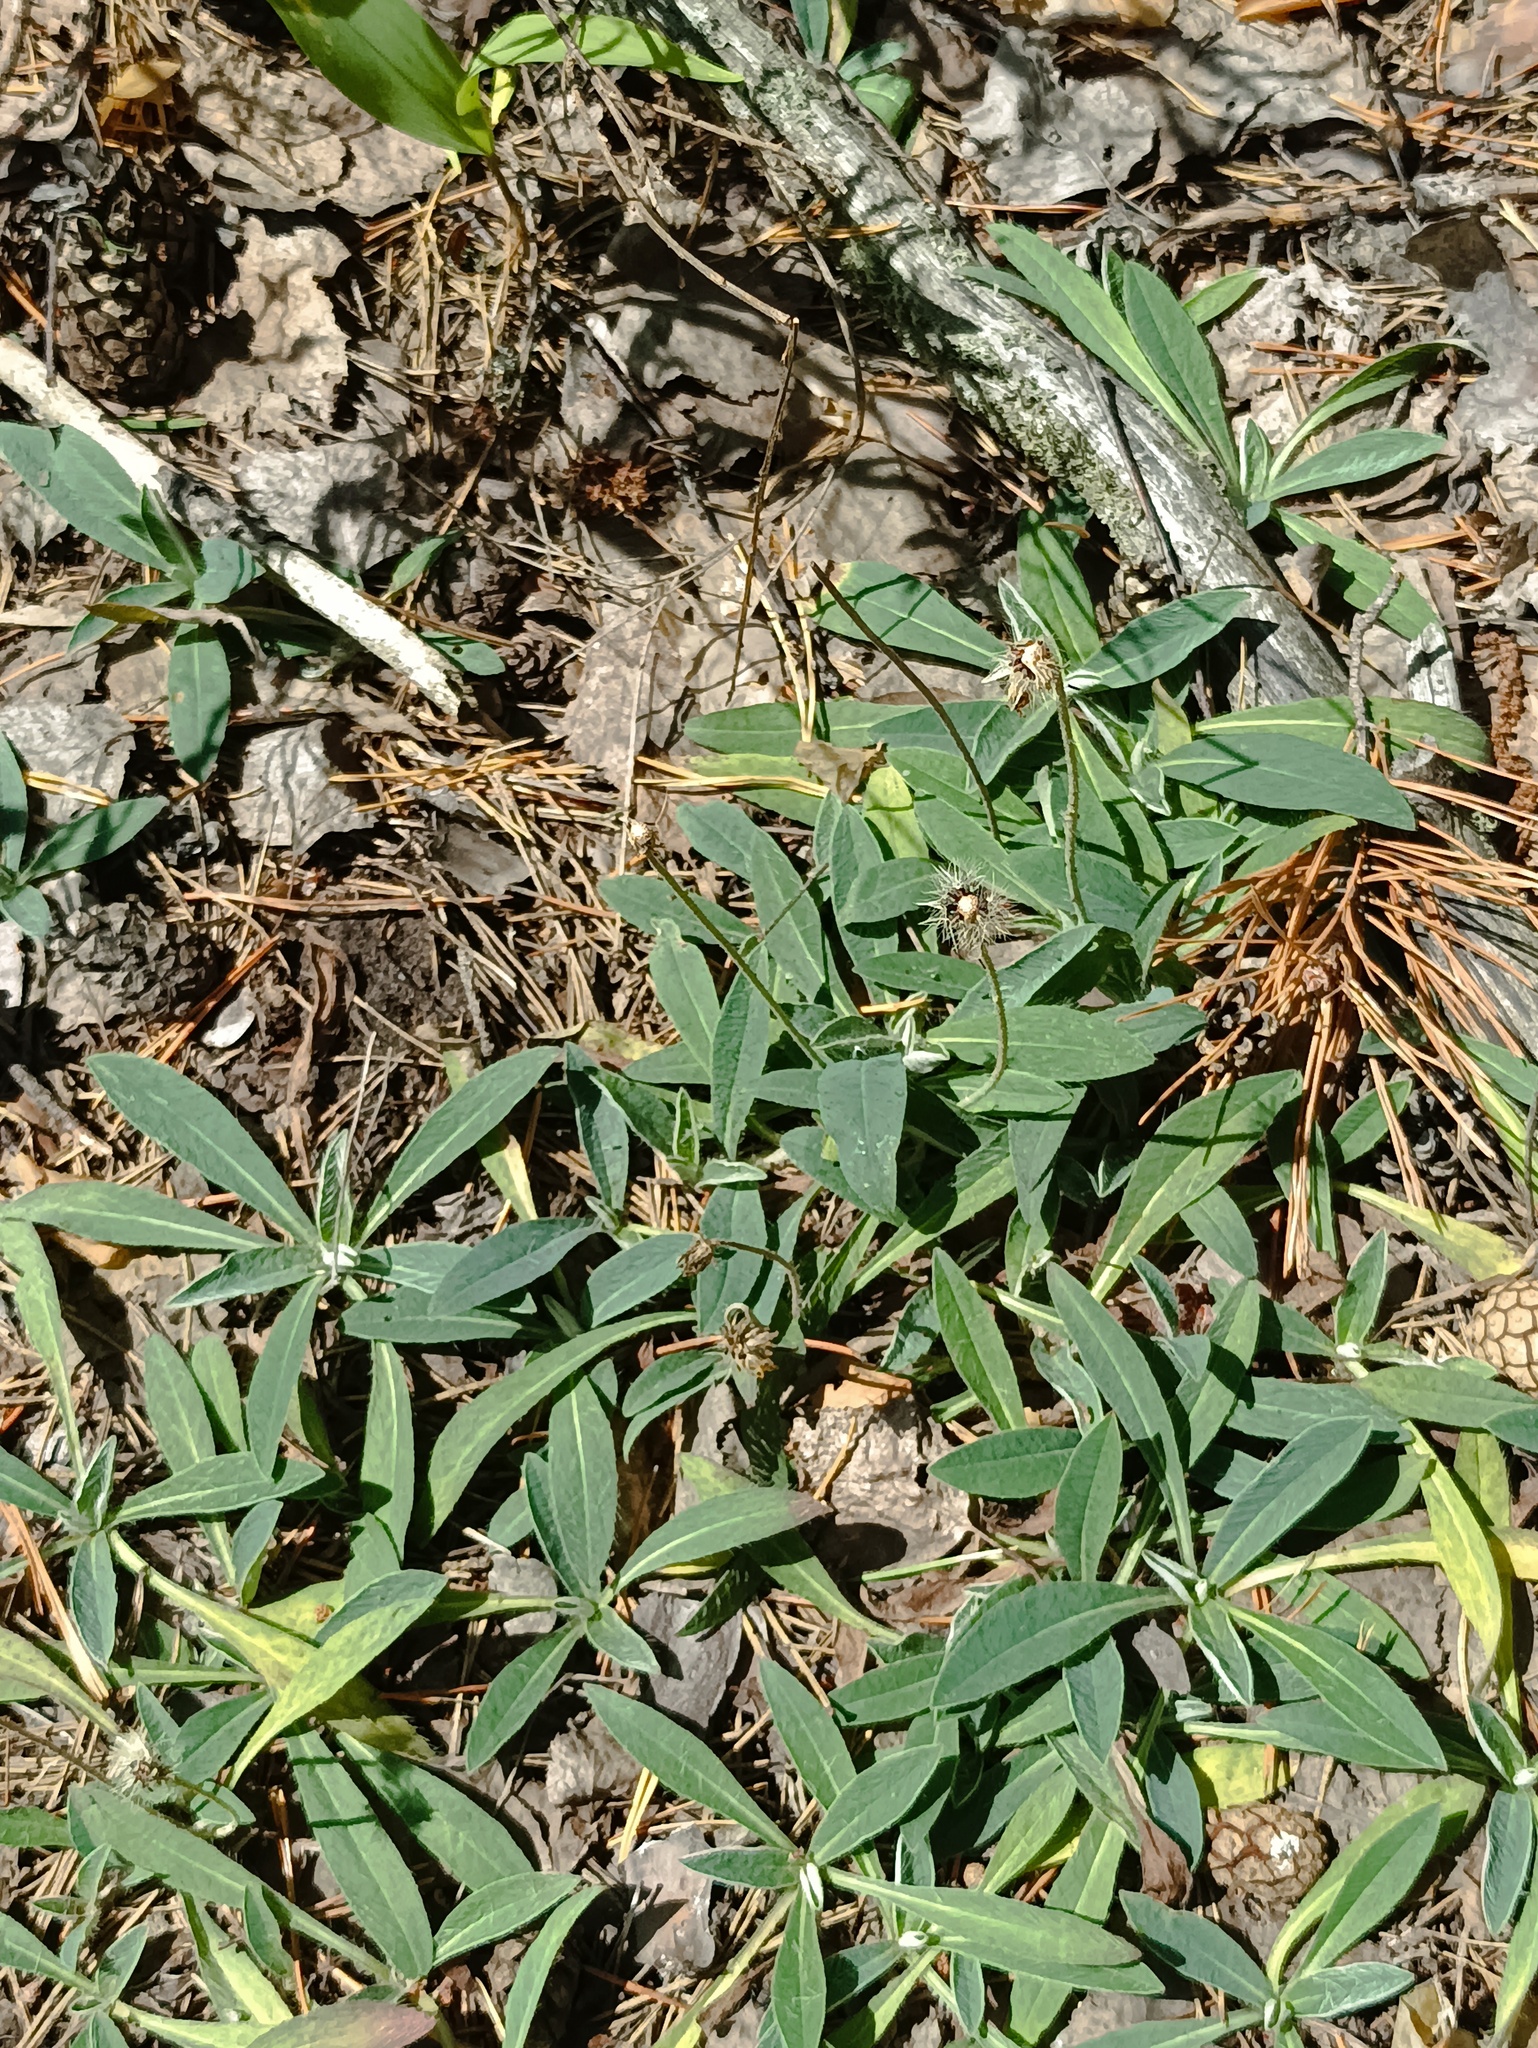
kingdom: Plantae
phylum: Tracheophyta
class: Magnoliopsida
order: Asterales
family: Asteraceae
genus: Pilosella
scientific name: Pilosella officinarum
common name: Mouse-ear hawkweed
